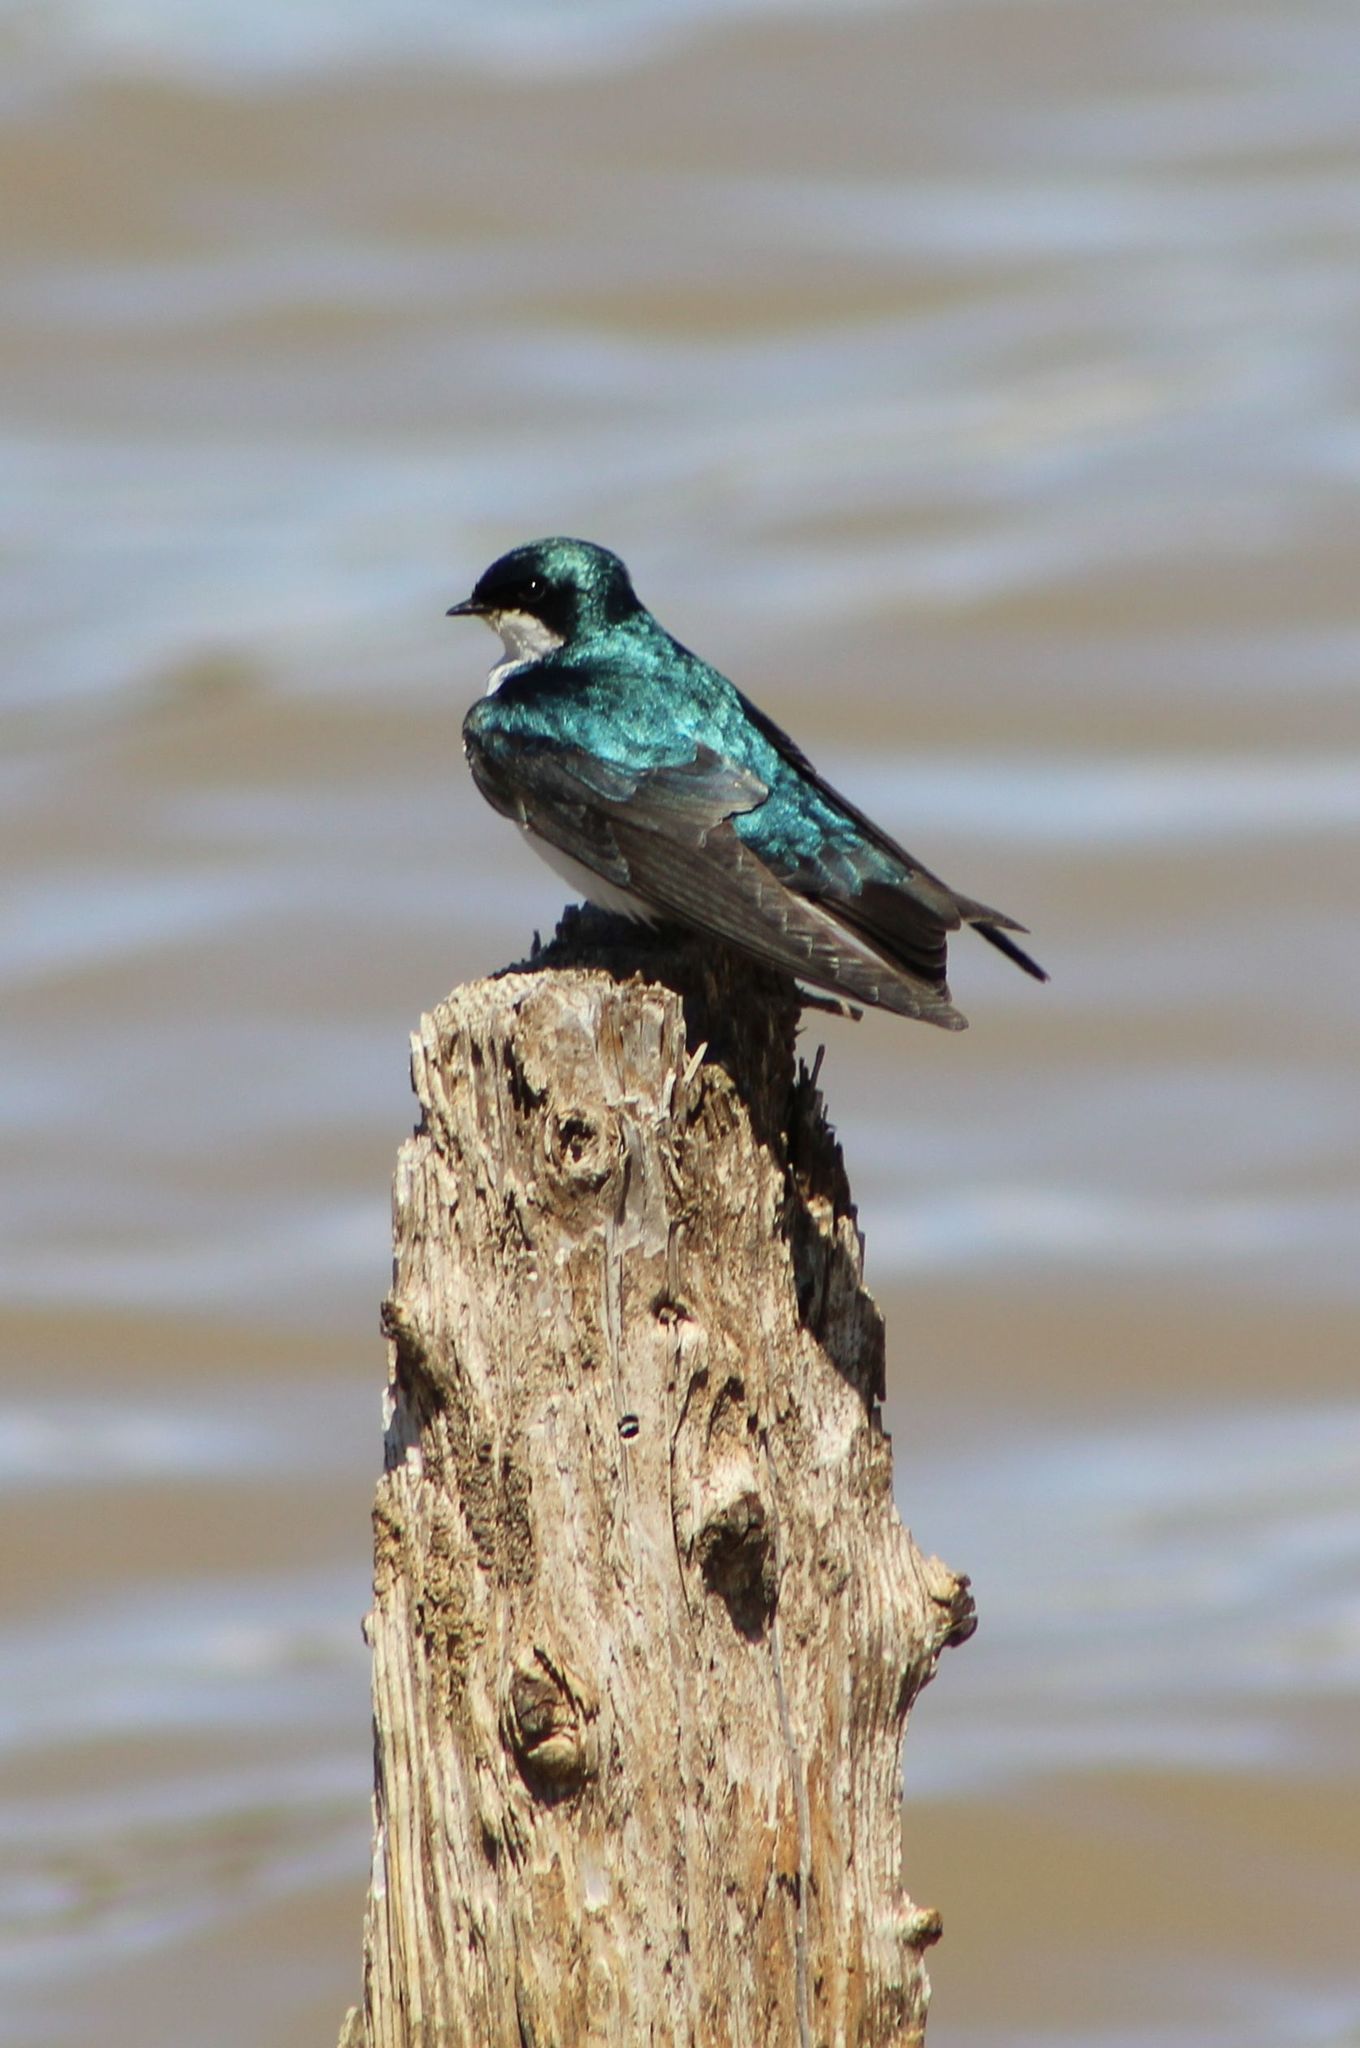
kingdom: Animalia
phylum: Chordata
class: Aves
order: Passeriformes
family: Hirundinidae
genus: Tachycineta
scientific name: Tachycineta bicolor
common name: Tree swallow
